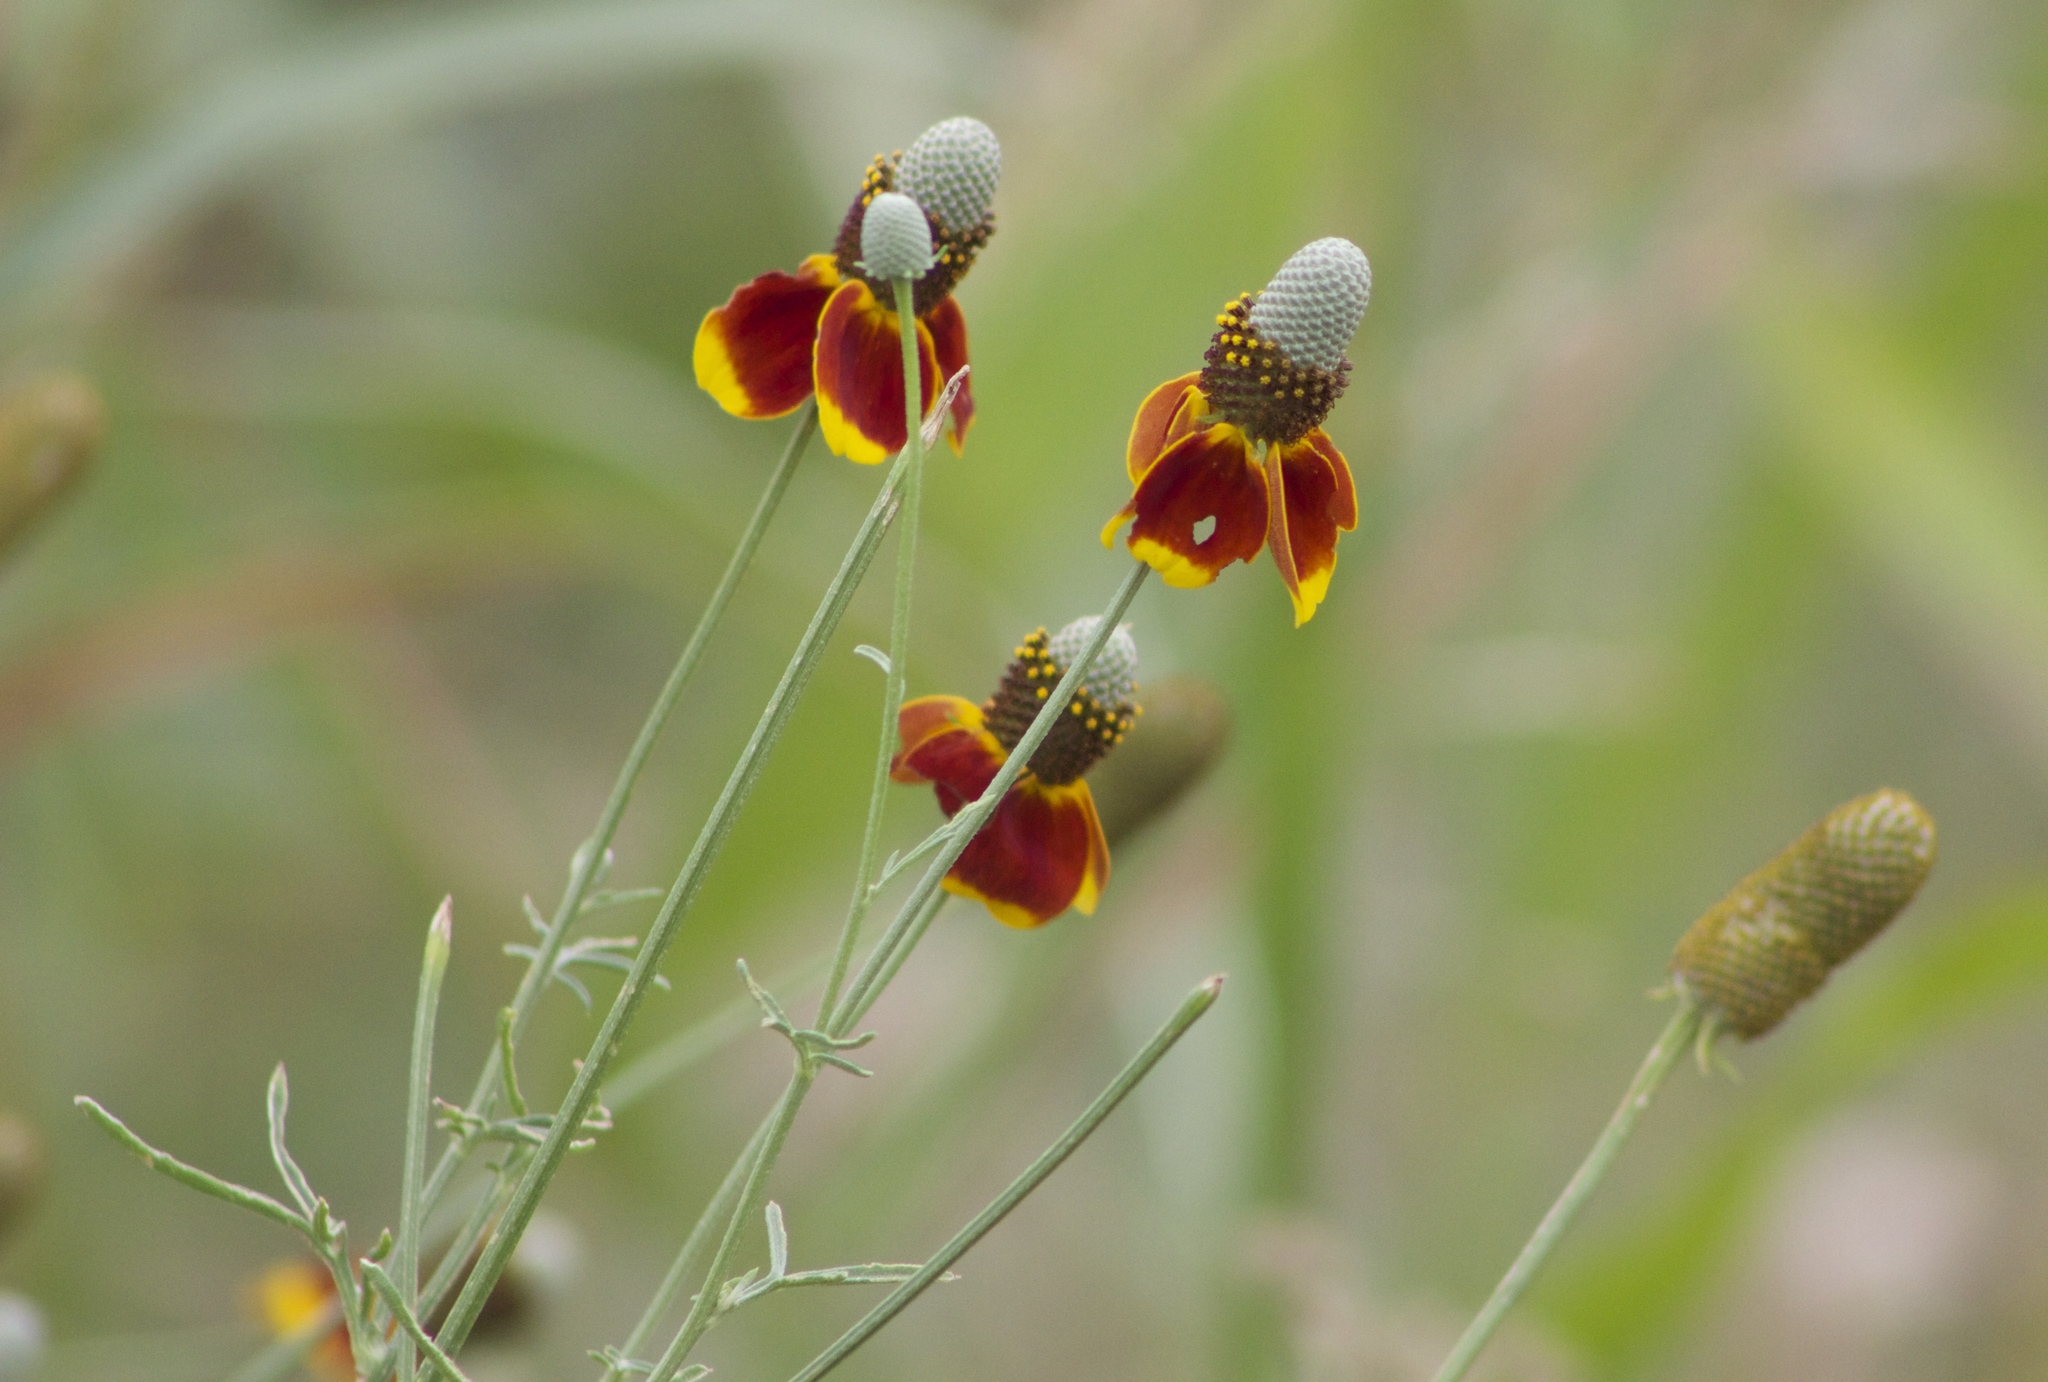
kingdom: Plantae
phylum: Tracheophyta
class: Magnoliopsida
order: Asterales
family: Asteraceae
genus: Ratibida
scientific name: Ratibida columnifera
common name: Prairie coneflower
